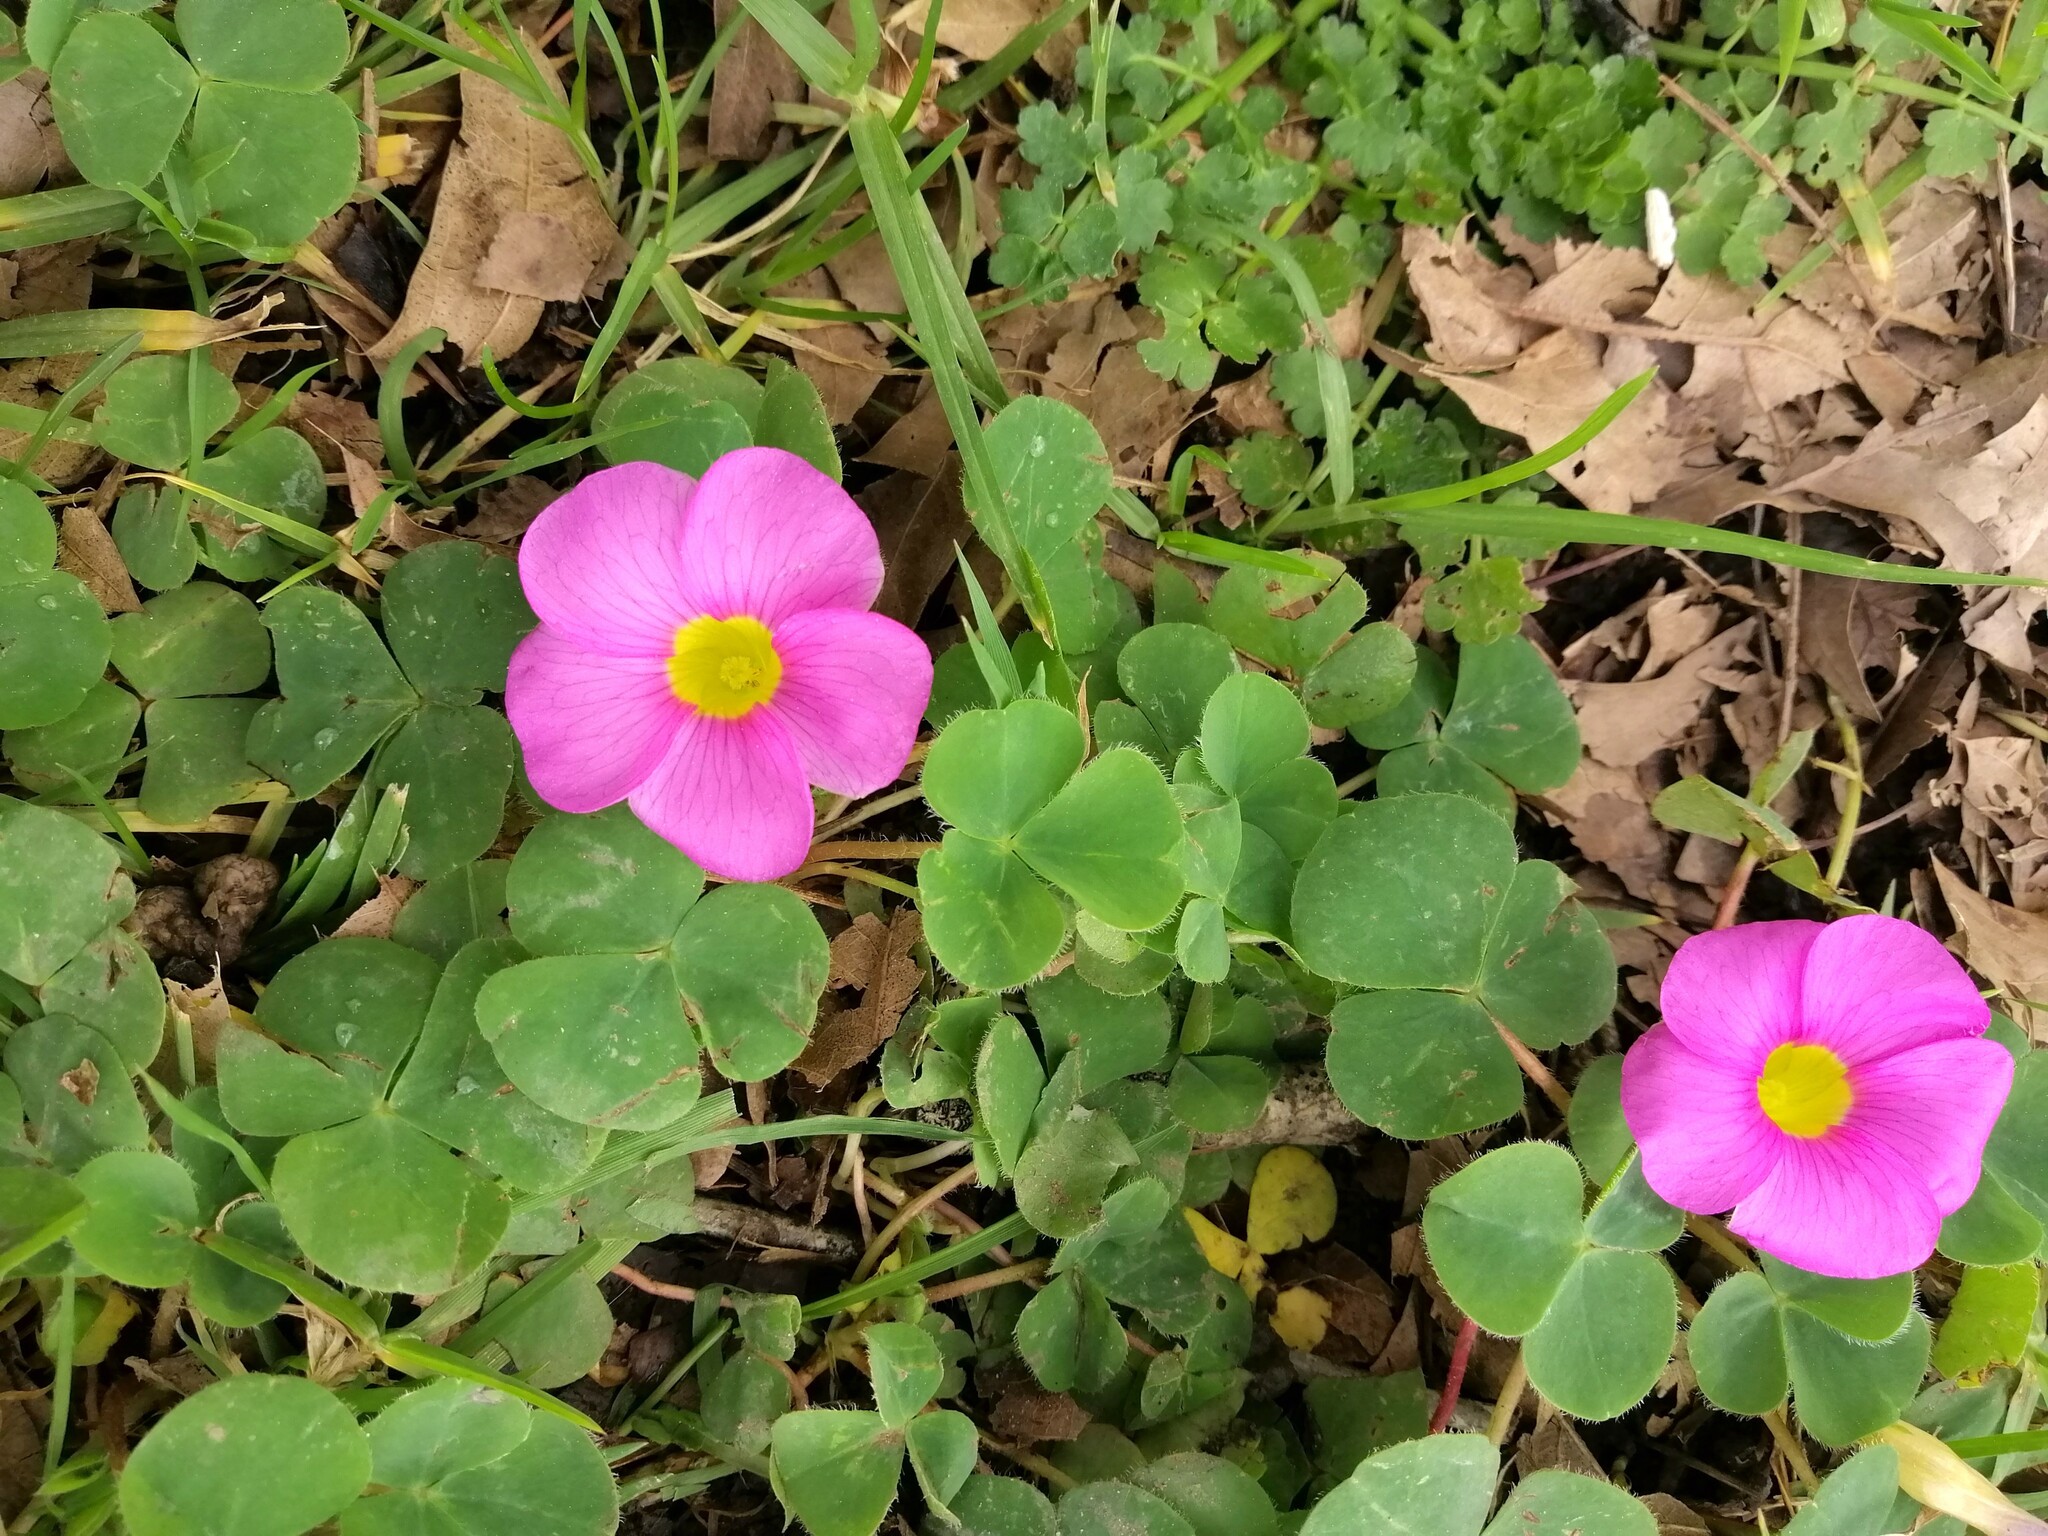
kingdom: Plantae
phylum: Tracheophyta
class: Magnoliopsida
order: Oxalidales
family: Oxalidaceae
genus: Oxalis
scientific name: Oxalis purpurea
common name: Purple woodsorrel
